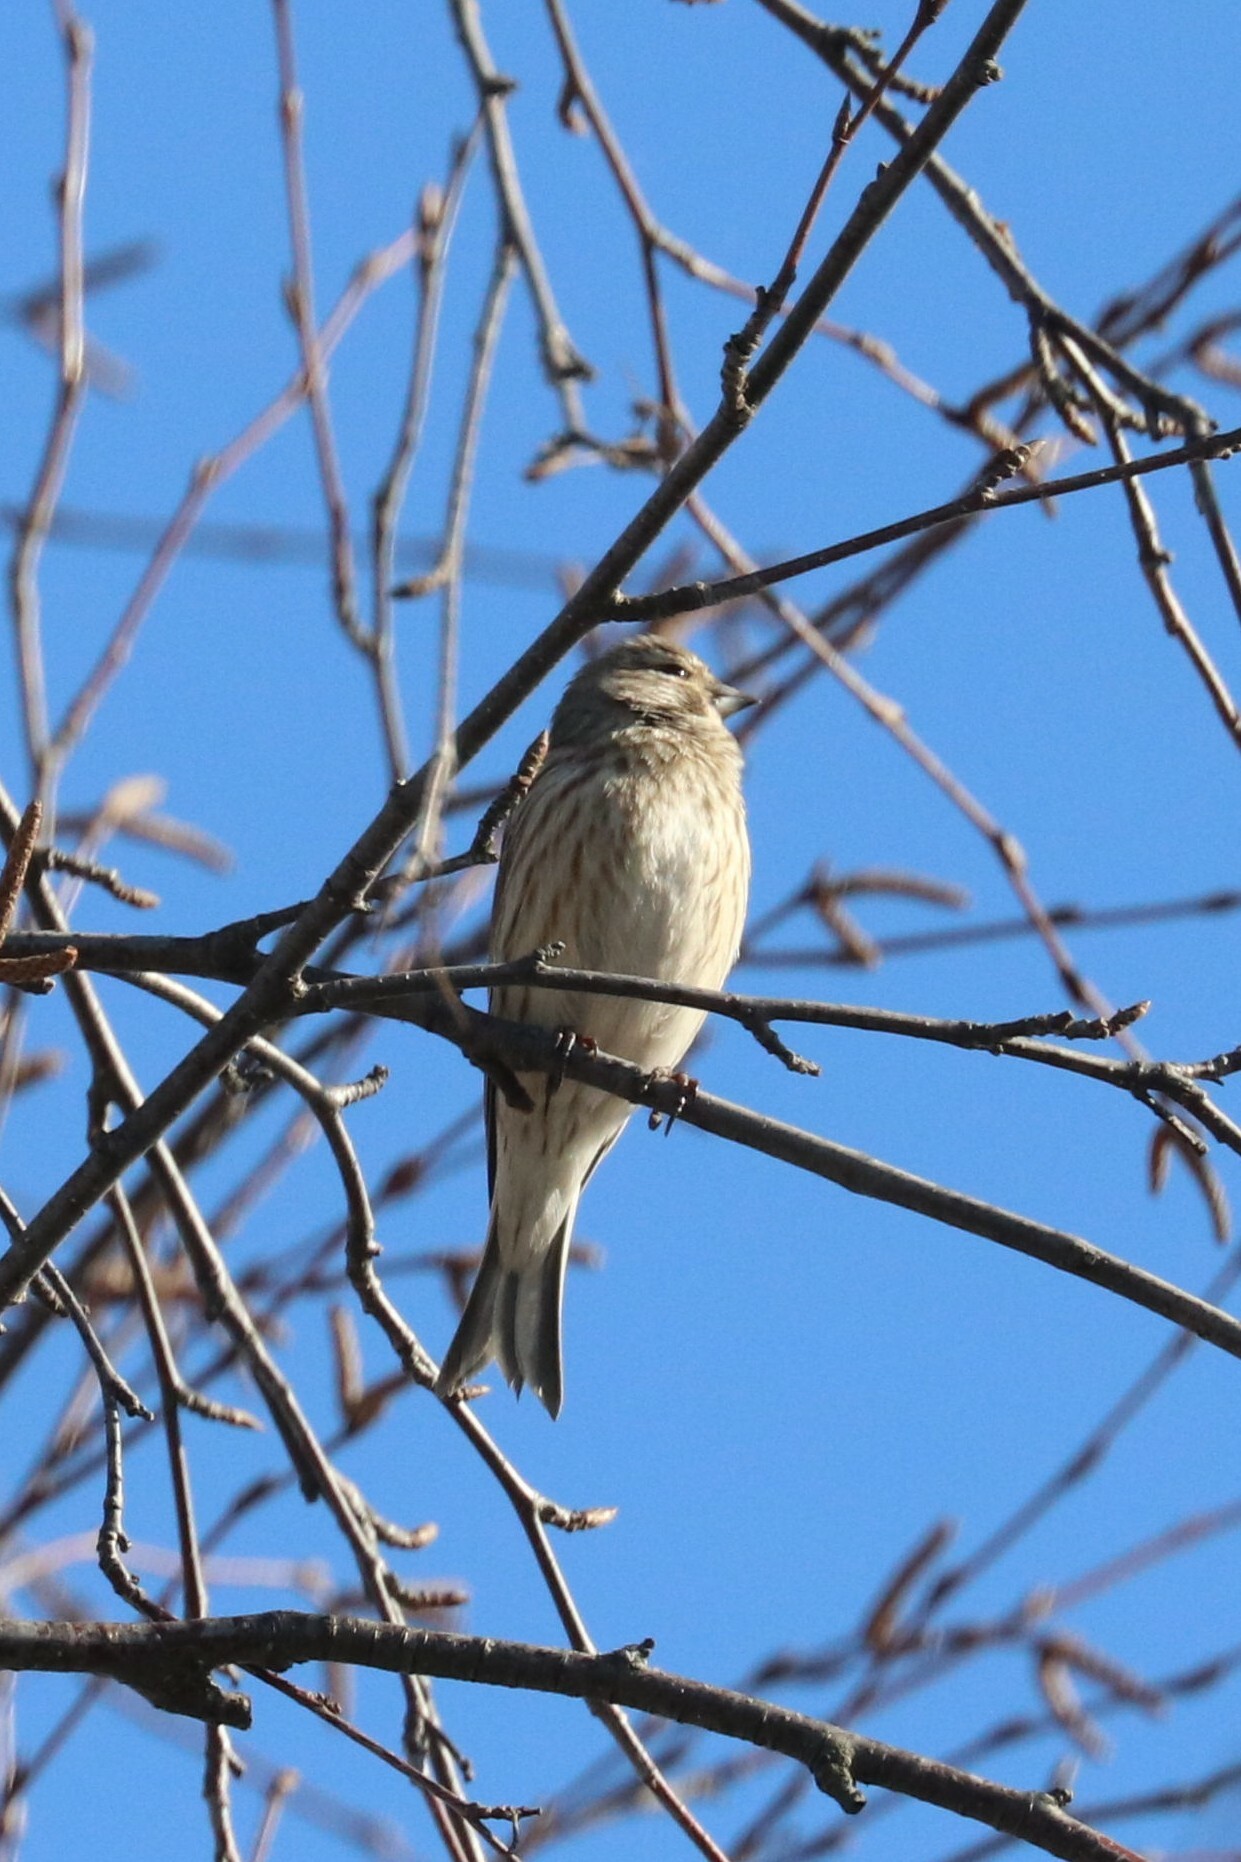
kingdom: Animalia
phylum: Chordata
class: Aves
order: Passeriformes
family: Fringillidae
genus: Linaria
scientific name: Linaria cannabina
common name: Common linnet
